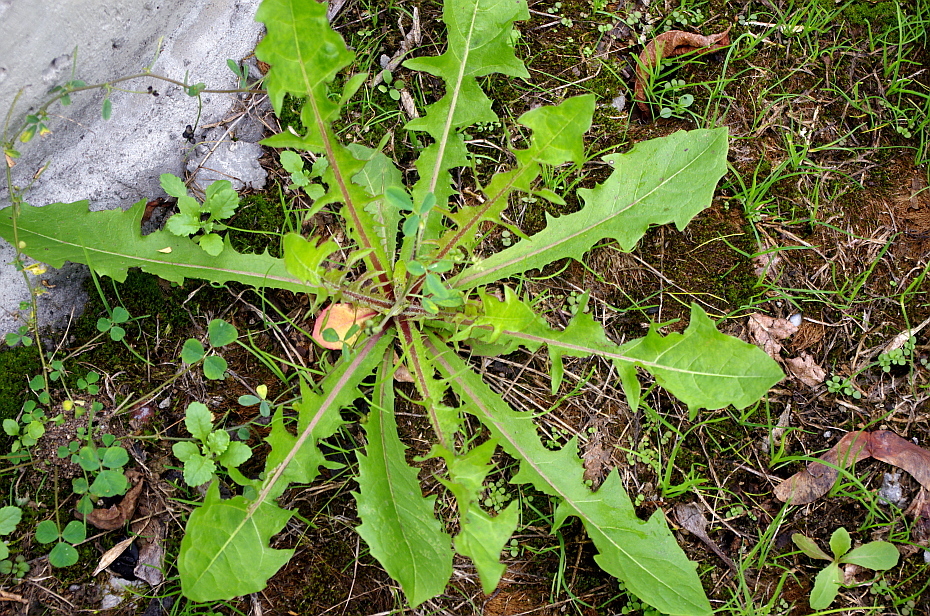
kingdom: Plantae
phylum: Tracheophyta
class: Magnoliopsida
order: Asterales
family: Asteraceae
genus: Taraxacum
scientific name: Taraxacum officinale
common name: Common dandelion
